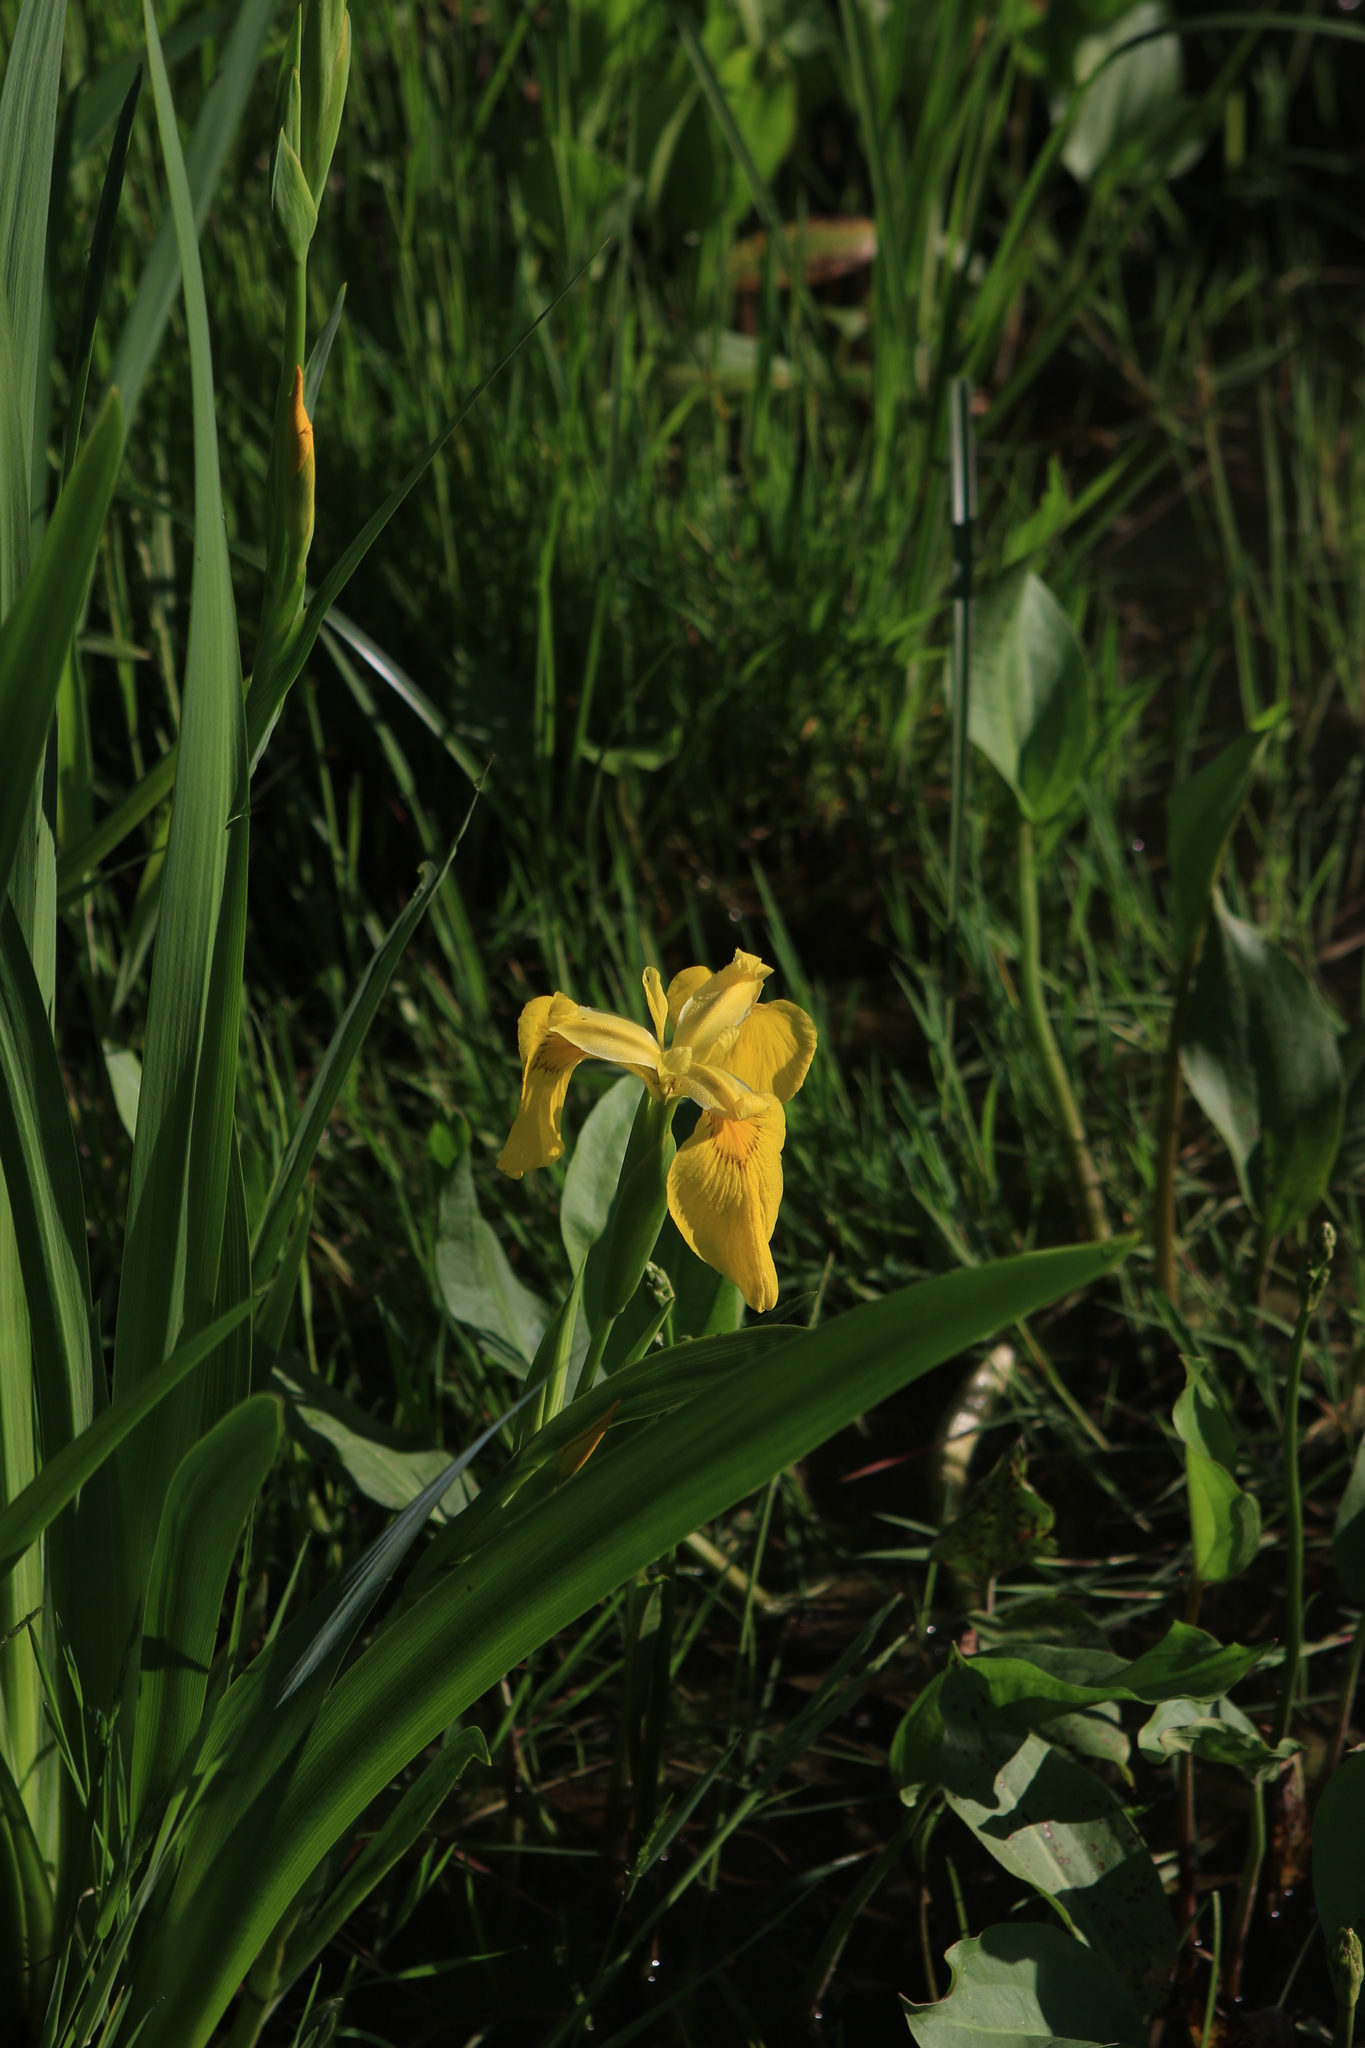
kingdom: Plantae
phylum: Tracheophyta
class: Liliopsida
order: Asparagales
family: Iridaceae
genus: Iris
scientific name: Iris pseudacorus
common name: Yellow flag
